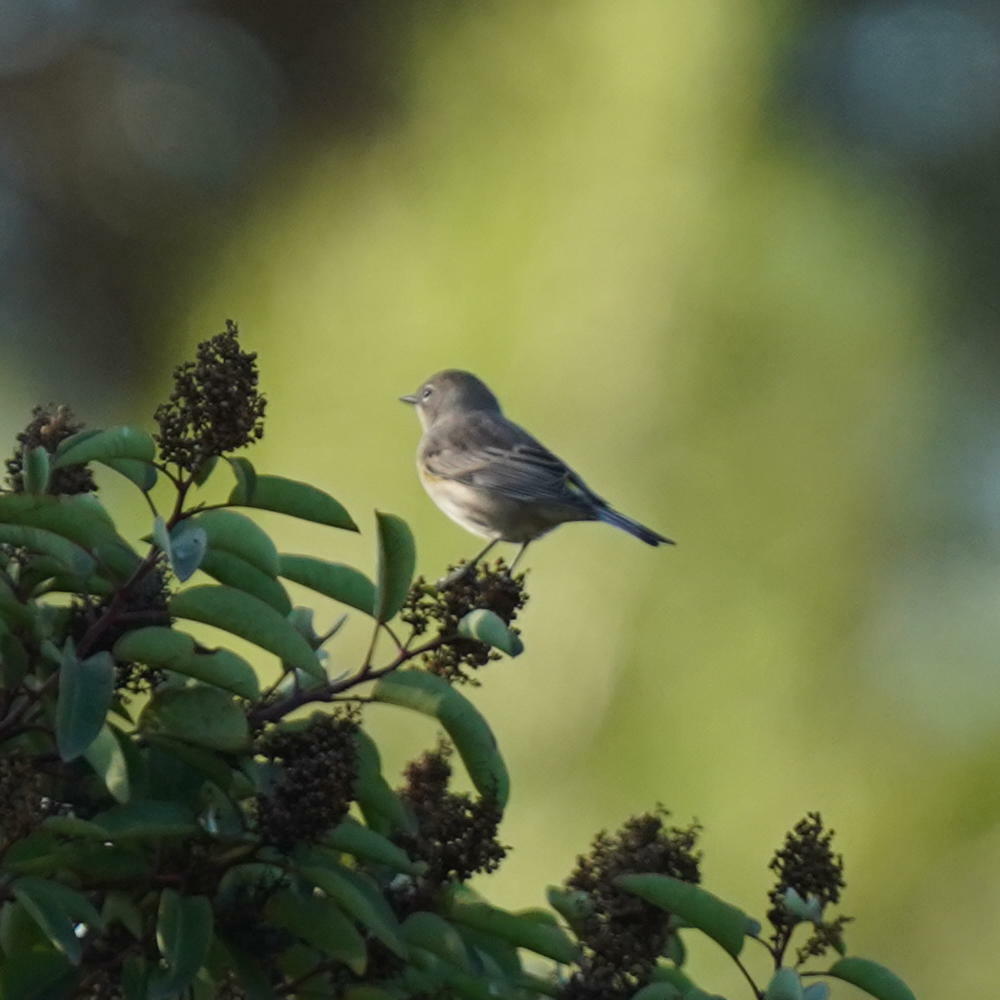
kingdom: Animalia
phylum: Chordata
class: Aves
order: Passeriformes
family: Parulidae
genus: Setophaga
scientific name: Setophaga coronata
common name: Myrtle warbler
